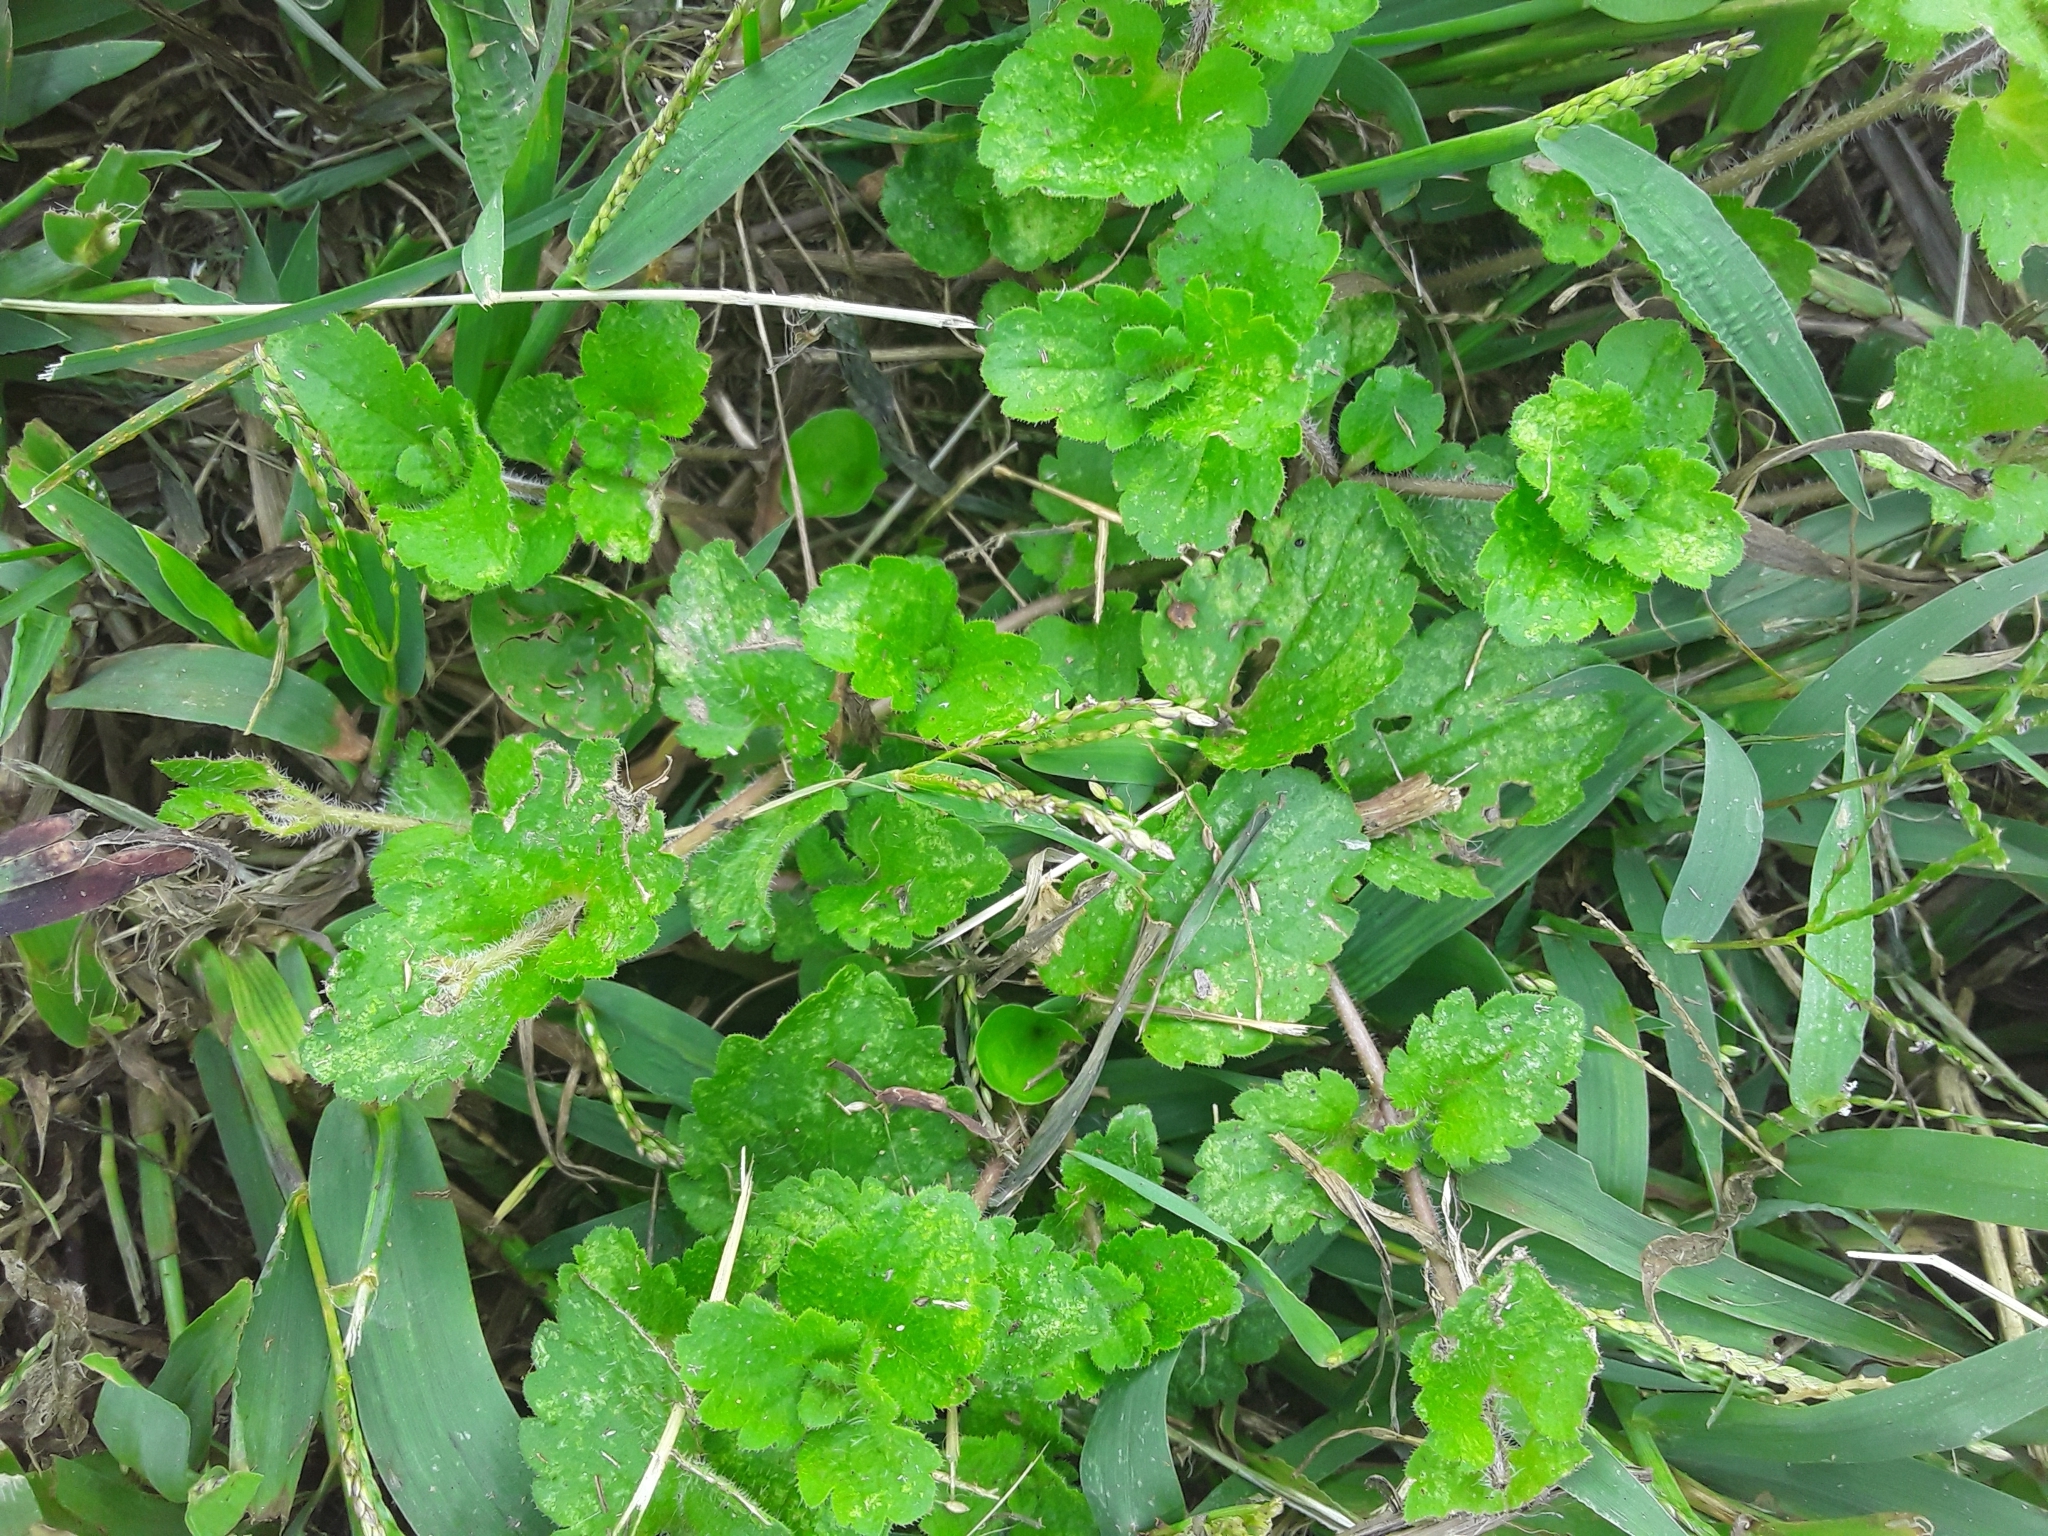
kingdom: Plantae
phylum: Tracheophyta
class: Magnoliopsida
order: Lamiales
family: Plantaginaceae
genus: Veronica
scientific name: Veronica persica
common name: Common field-speedwell
